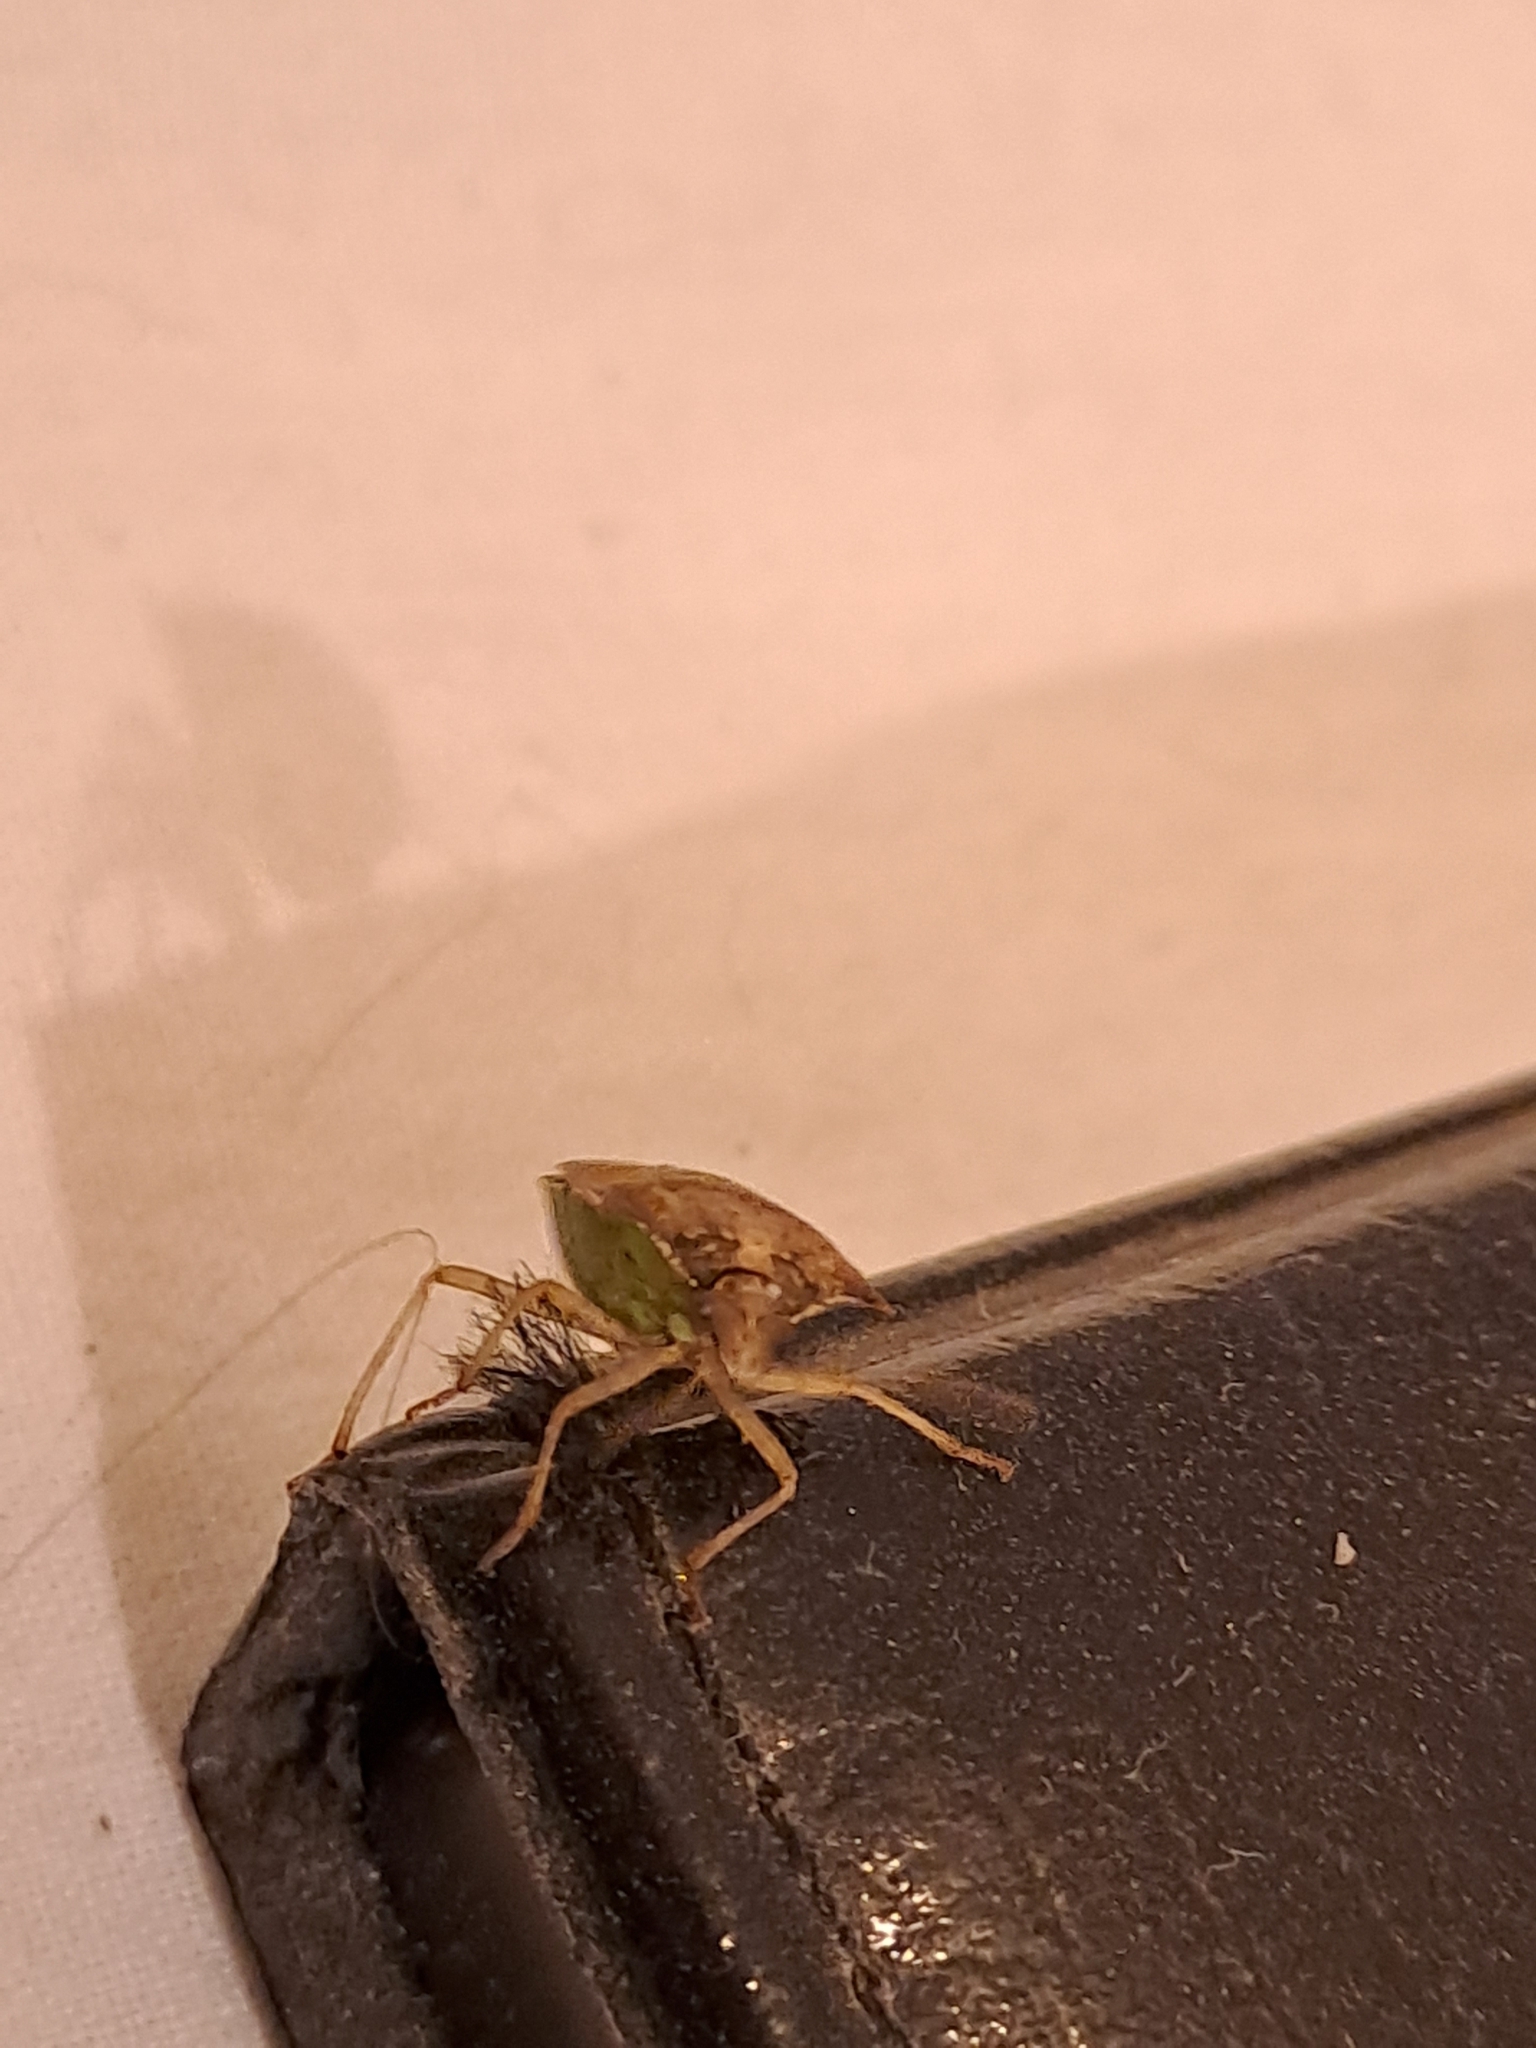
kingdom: Animalia
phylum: Arthropoda
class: Insecta
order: Hemiptera
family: Pentatomidae
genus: Podisus
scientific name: Podisus nigrispinus
